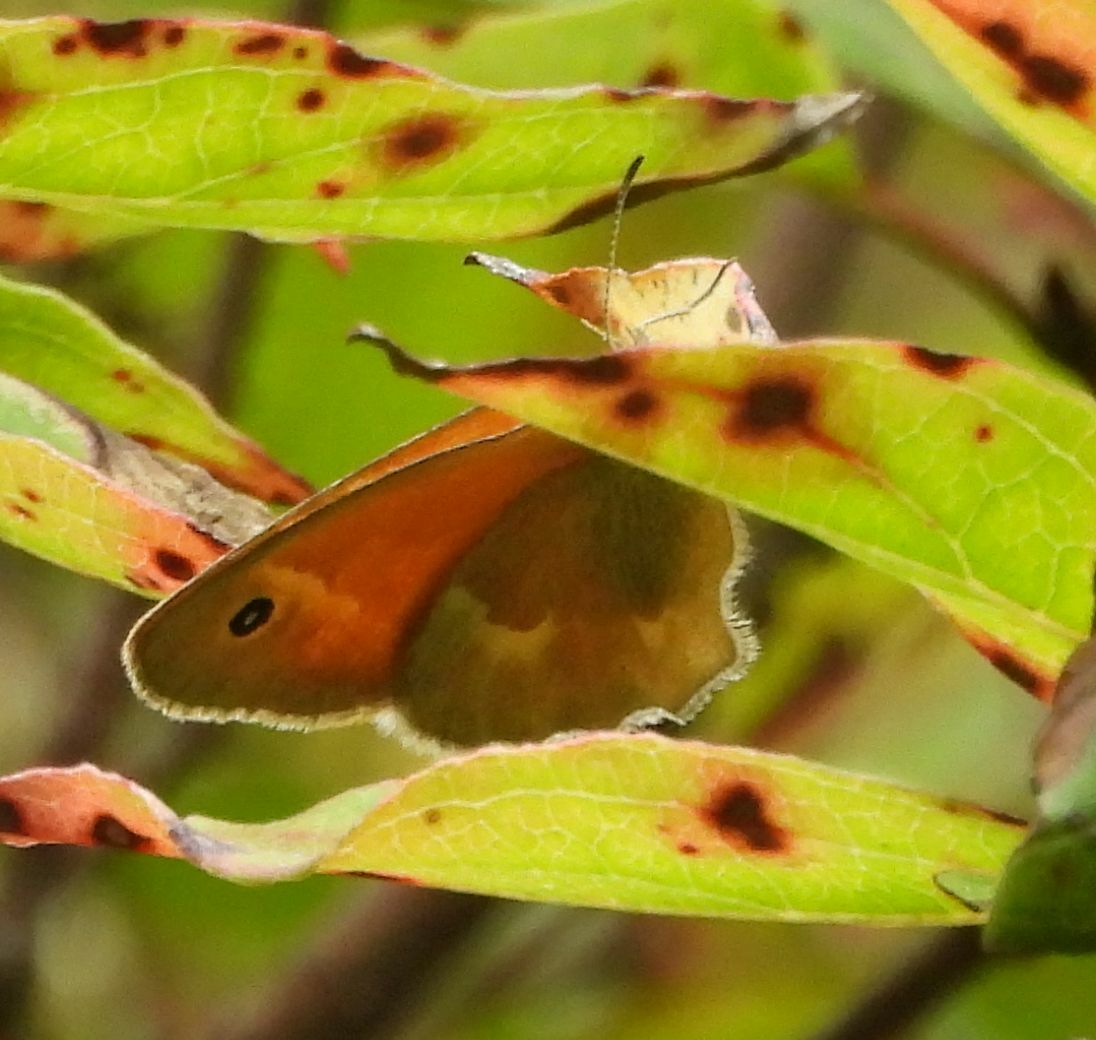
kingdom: Animalia
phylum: Arthropoda
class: Insecta
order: Lepidoptera
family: Nymphalidae
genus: Coenonympha
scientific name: Coenonympha california
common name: Common ringlet
